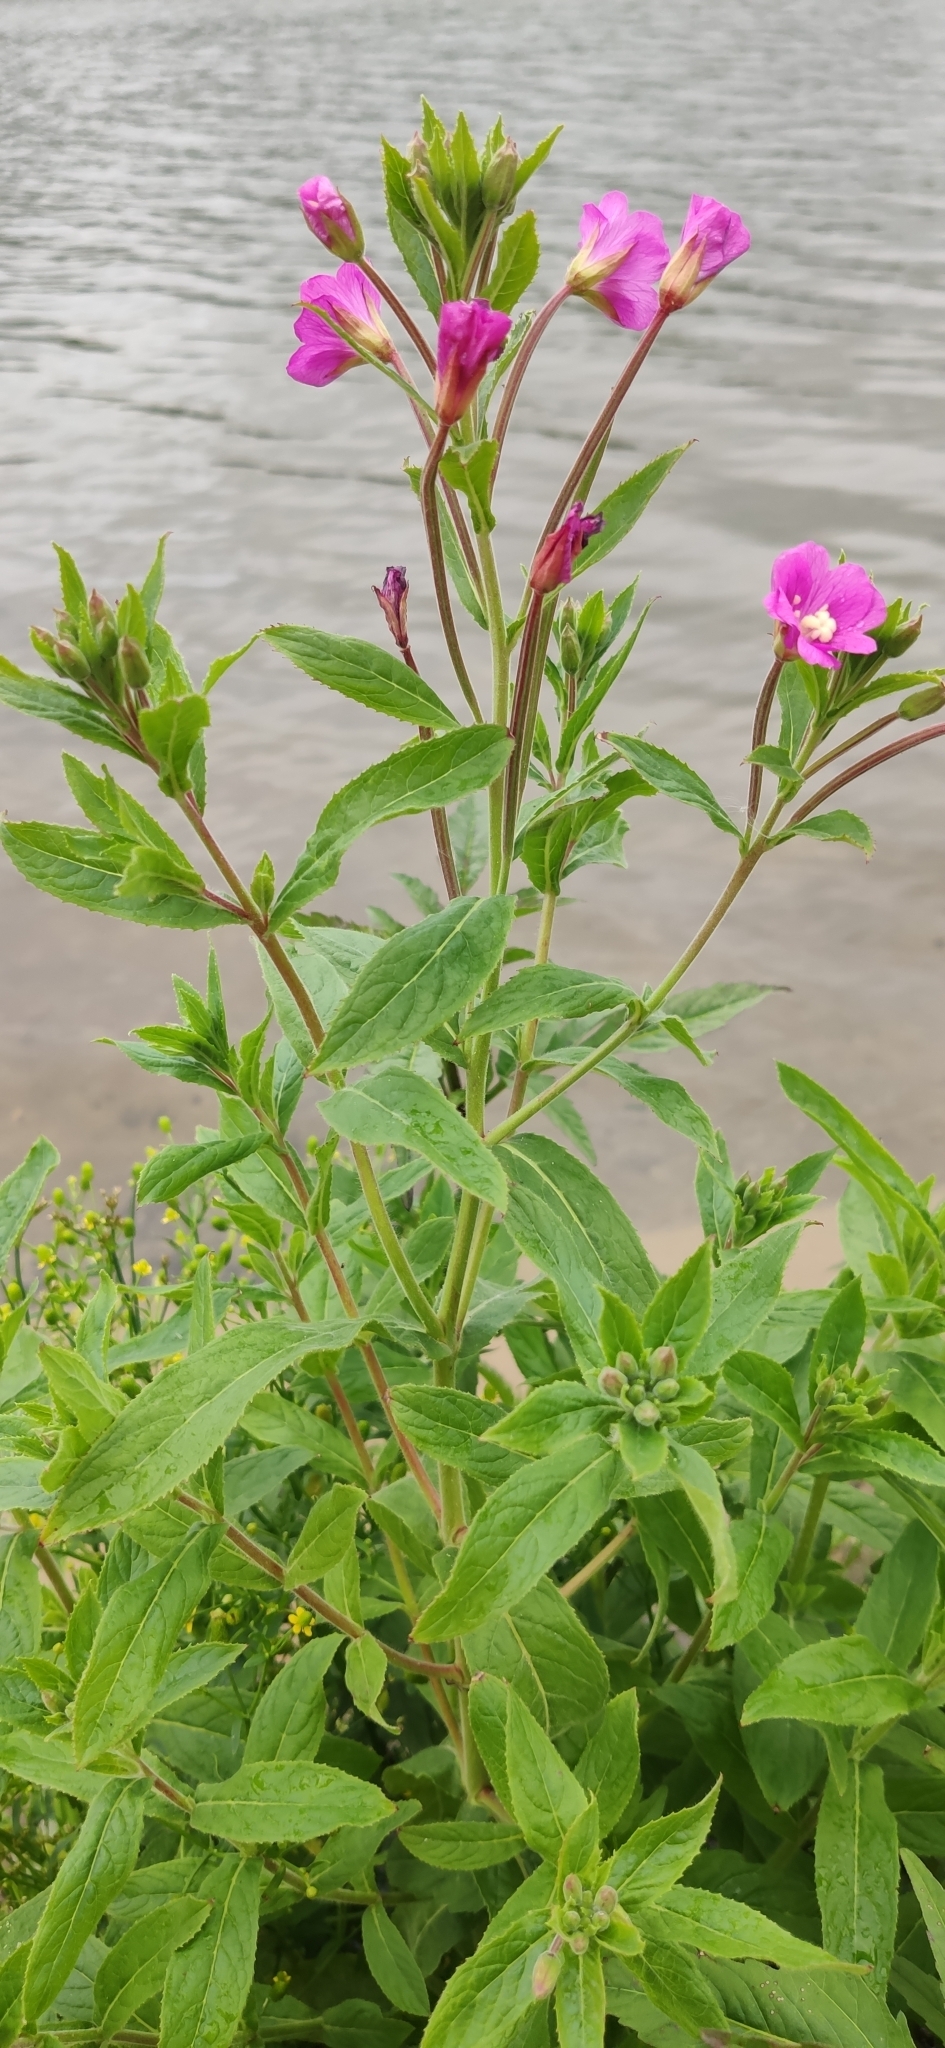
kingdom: Plantae
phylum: Tracheophyta
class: Magnoliopsida
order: Myrtales
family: Onagraceae
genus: Epilobium
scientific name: Epilobium hirsutum
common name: Great willowherb
